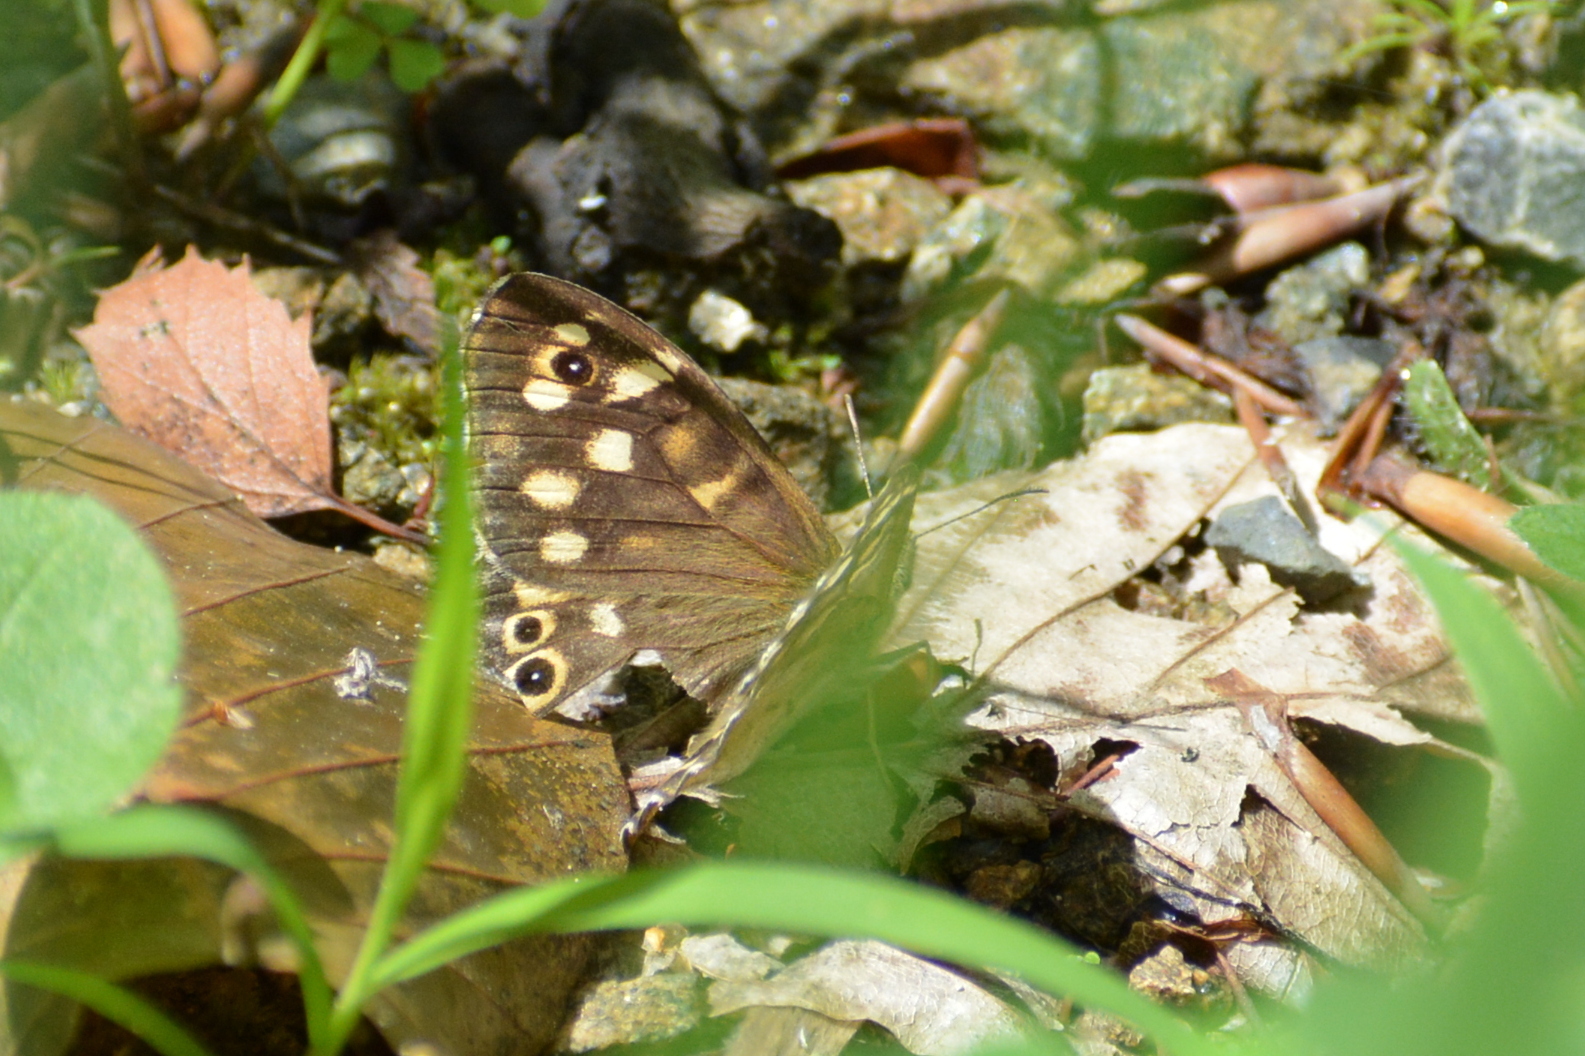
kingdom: Animalia
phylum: Arthropoda
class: Insecta
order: Lepidoptera
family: Nymphalidae
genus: Pararge
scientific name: Pararge aegeria
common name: Speckled wood
